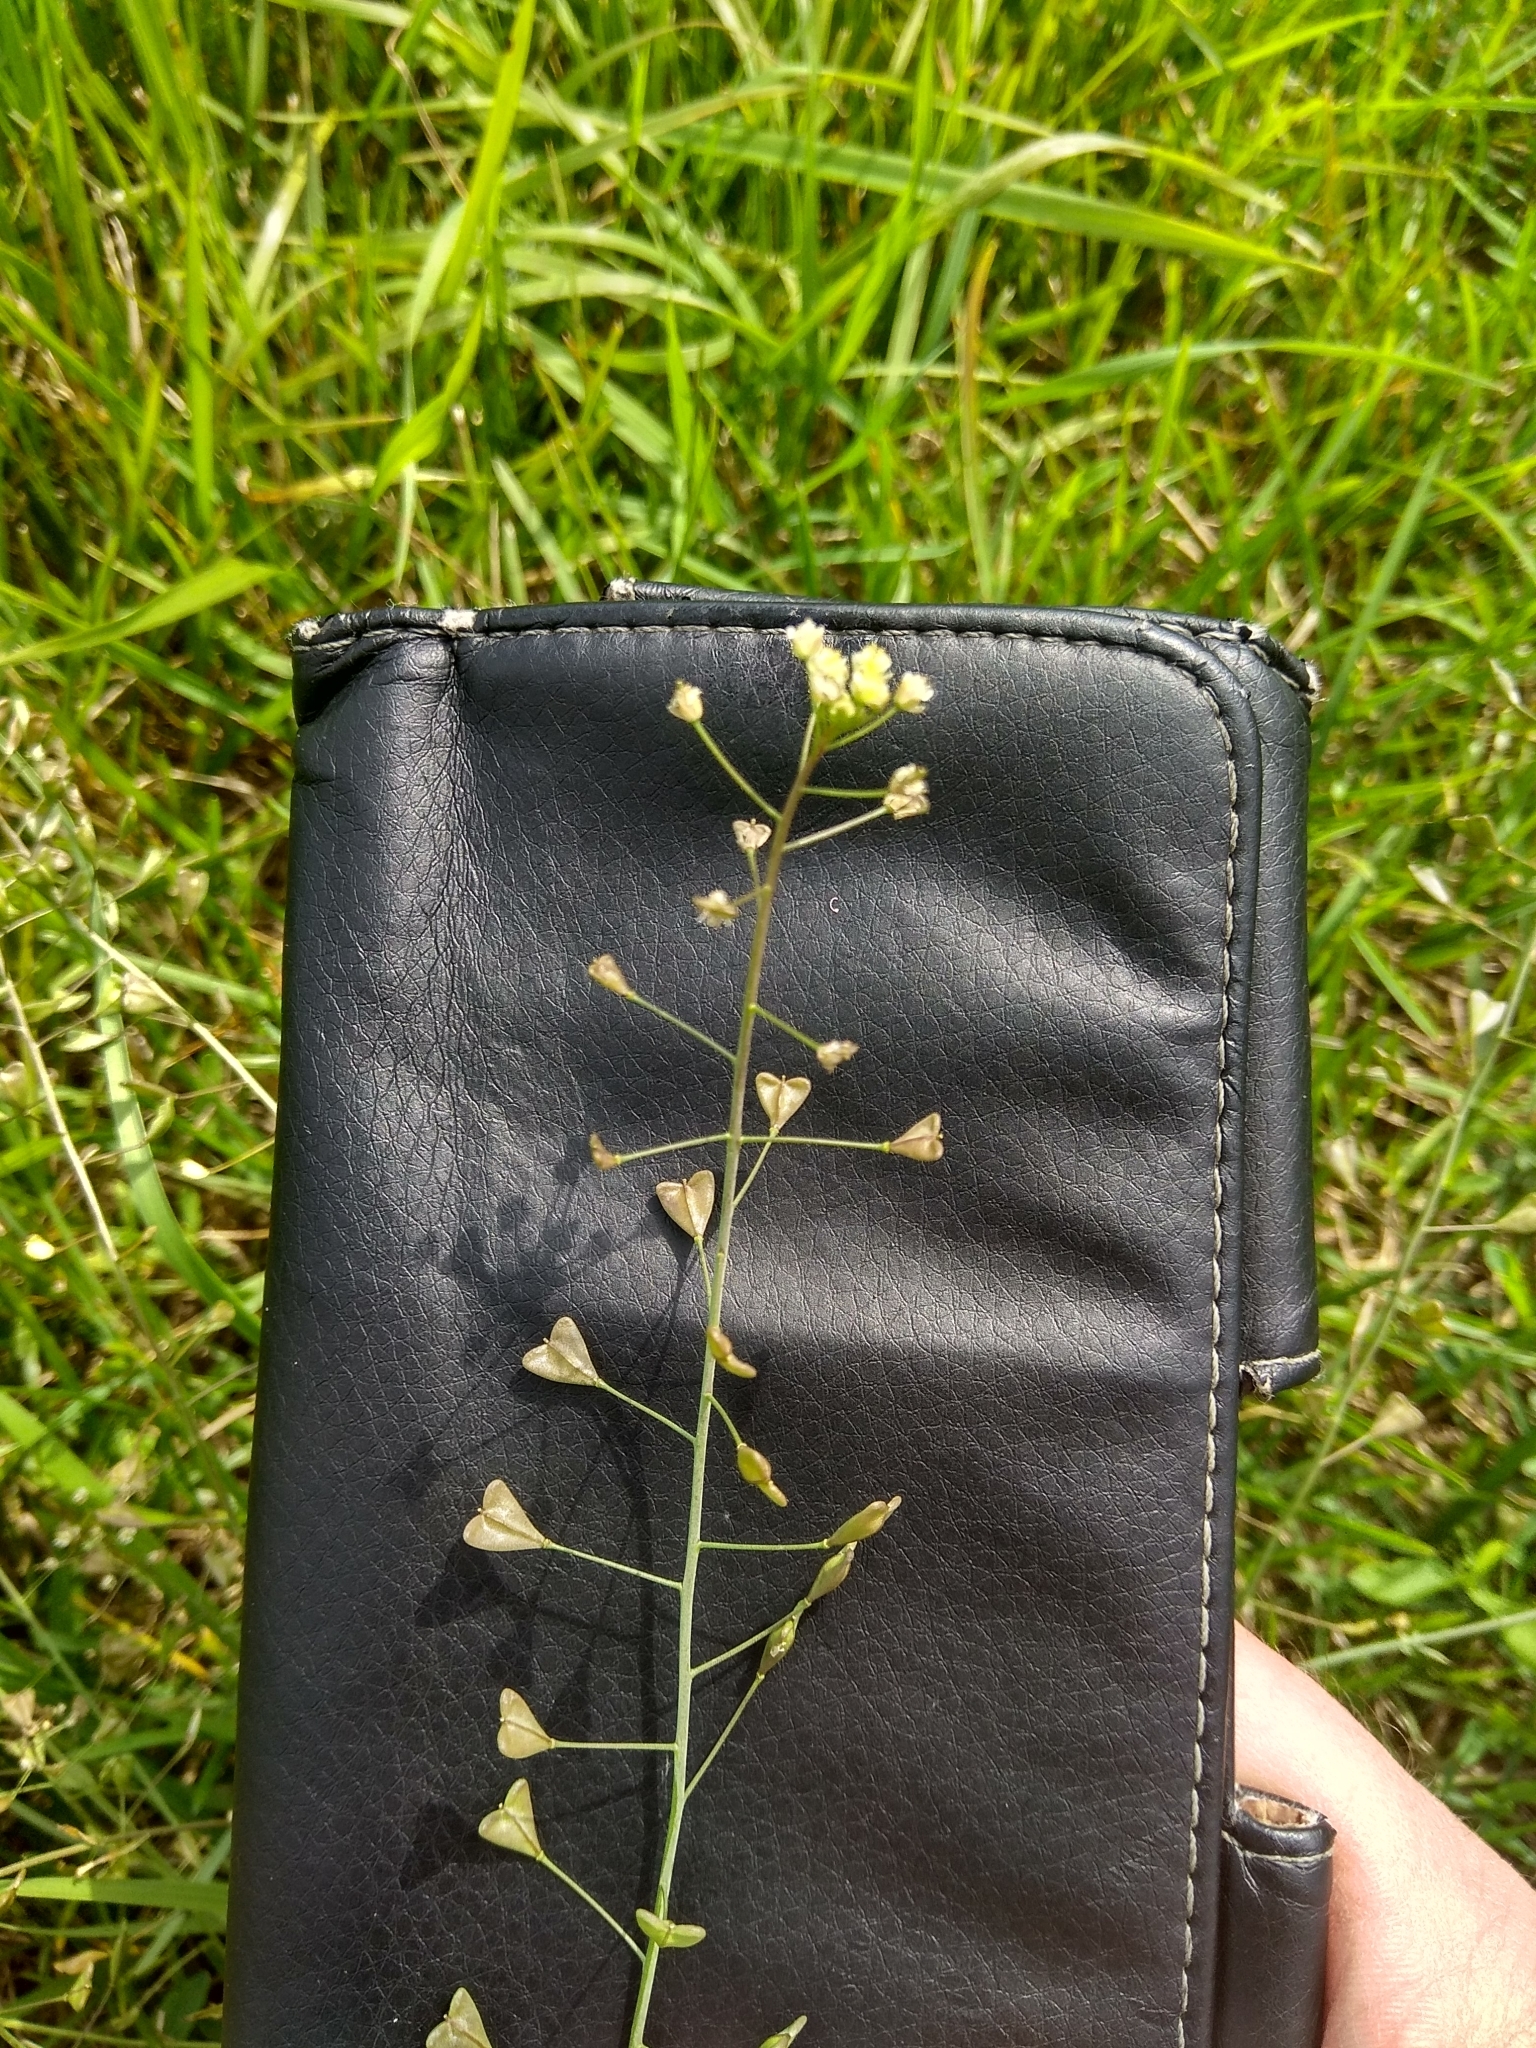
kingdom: Plantae
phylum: Tracheophyta
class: Magnoliopsida
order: Brassicales
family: Brassicaceae
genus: Capsella
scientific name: Capsella bursa-pastoris
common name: Shepherd's purse
